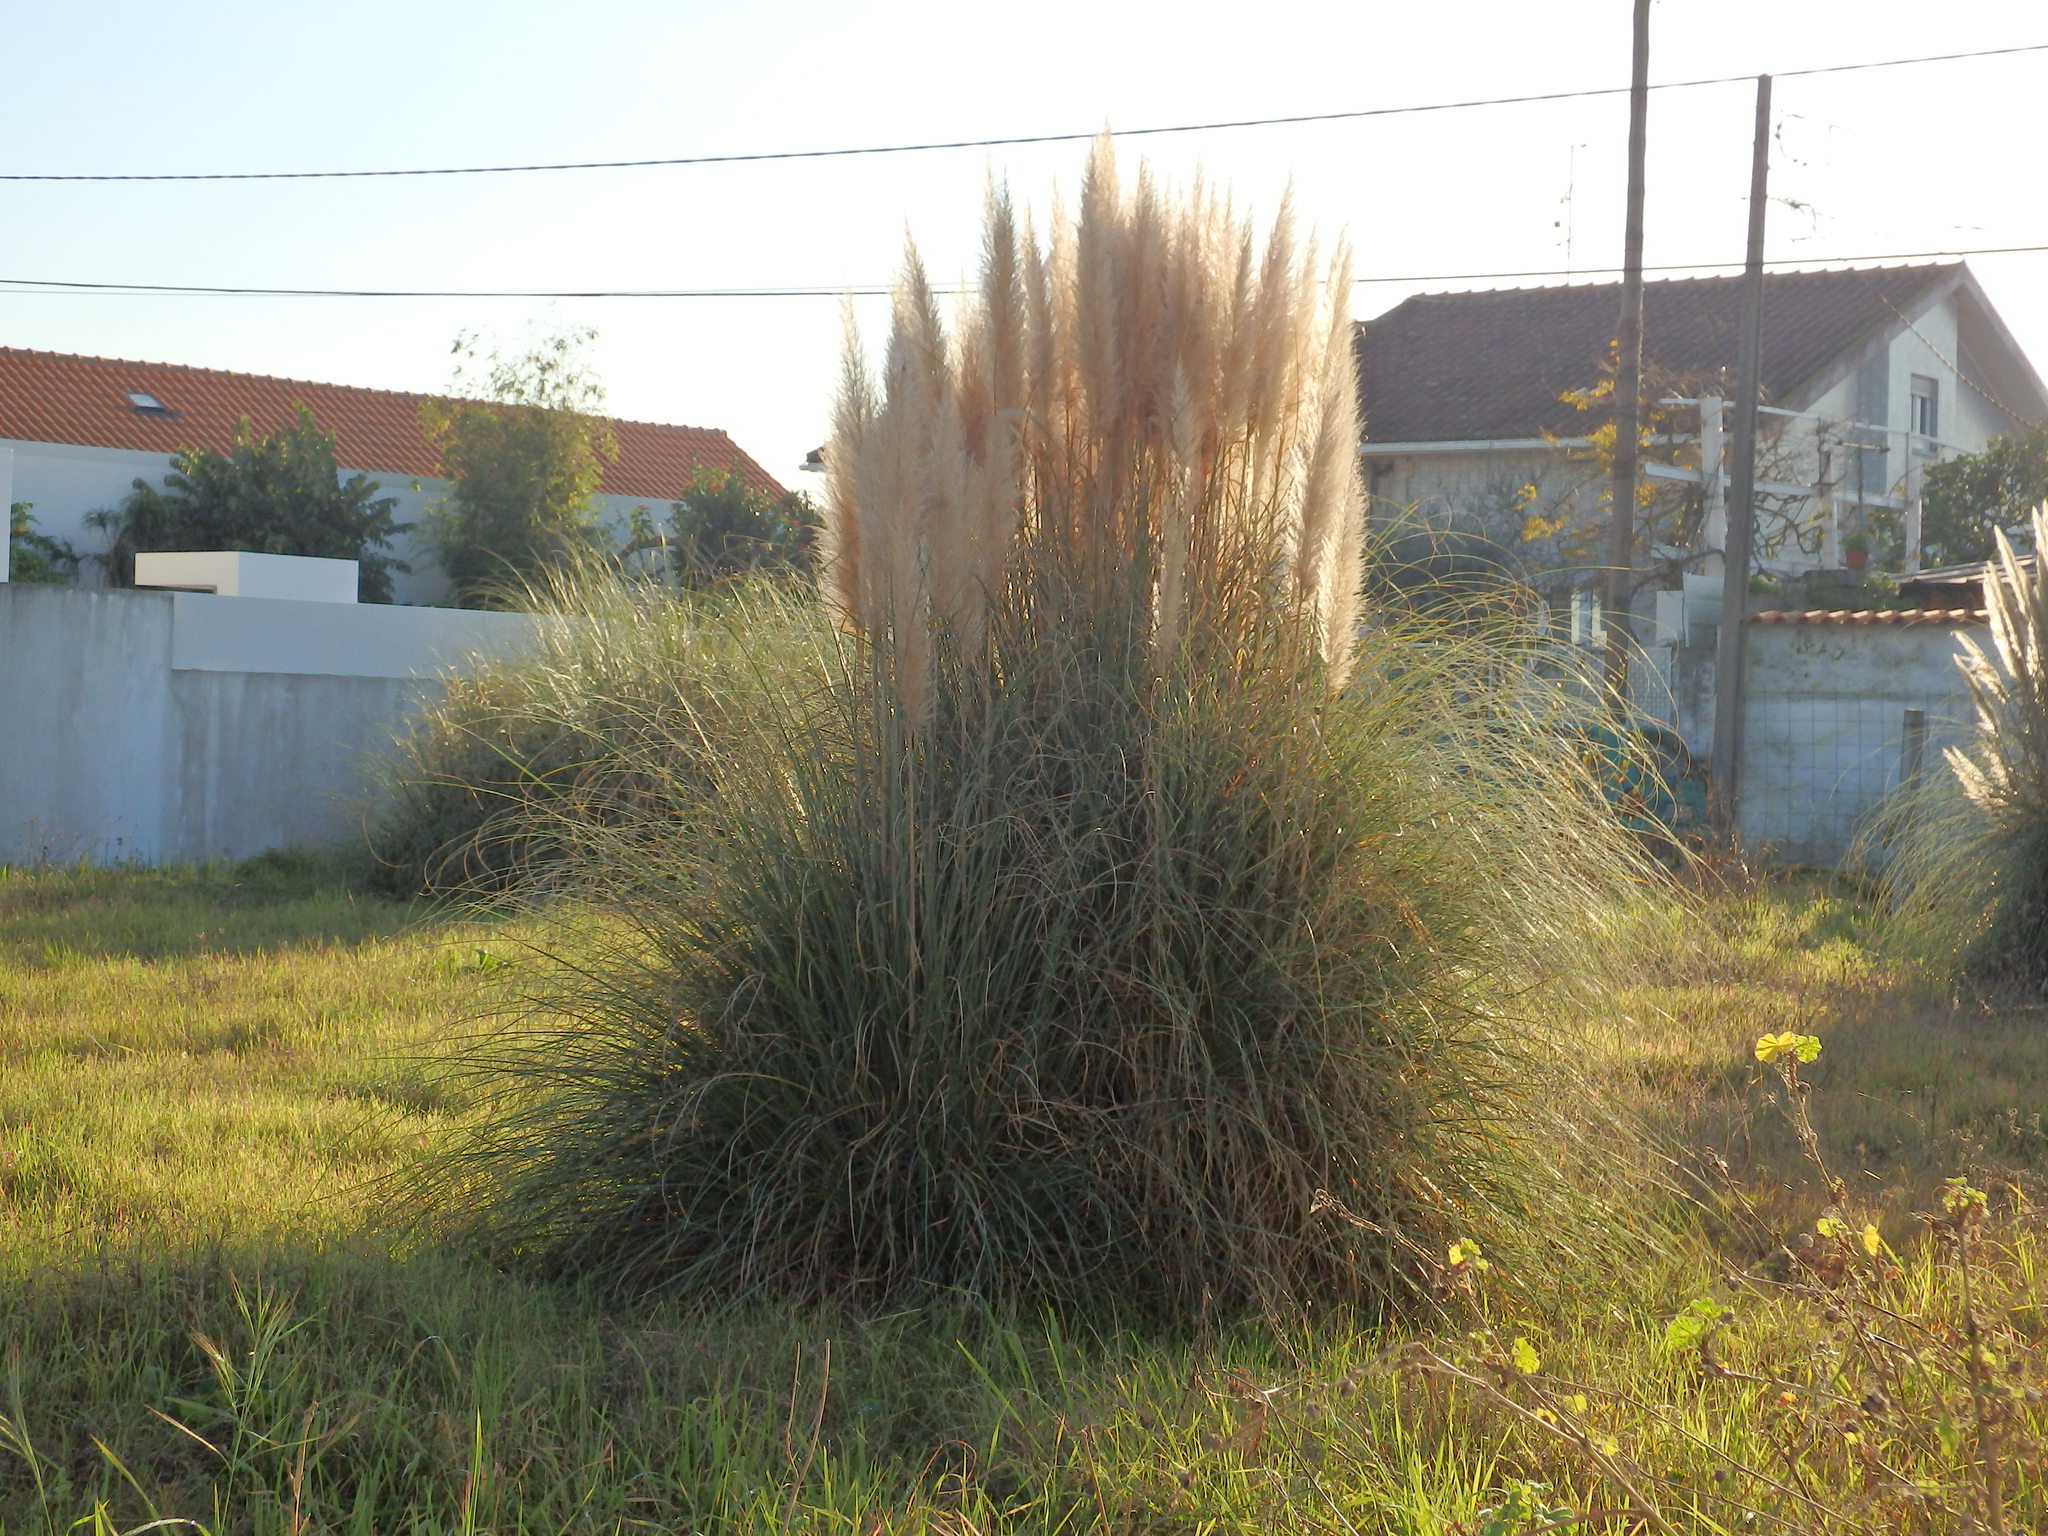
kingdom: Plantae
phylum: Tracheophyta
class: Liliopsida
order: Poales
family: Poaceae
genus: Cortaderia
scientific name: Cortaderia selloana
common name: Uruguayan pampas grass
